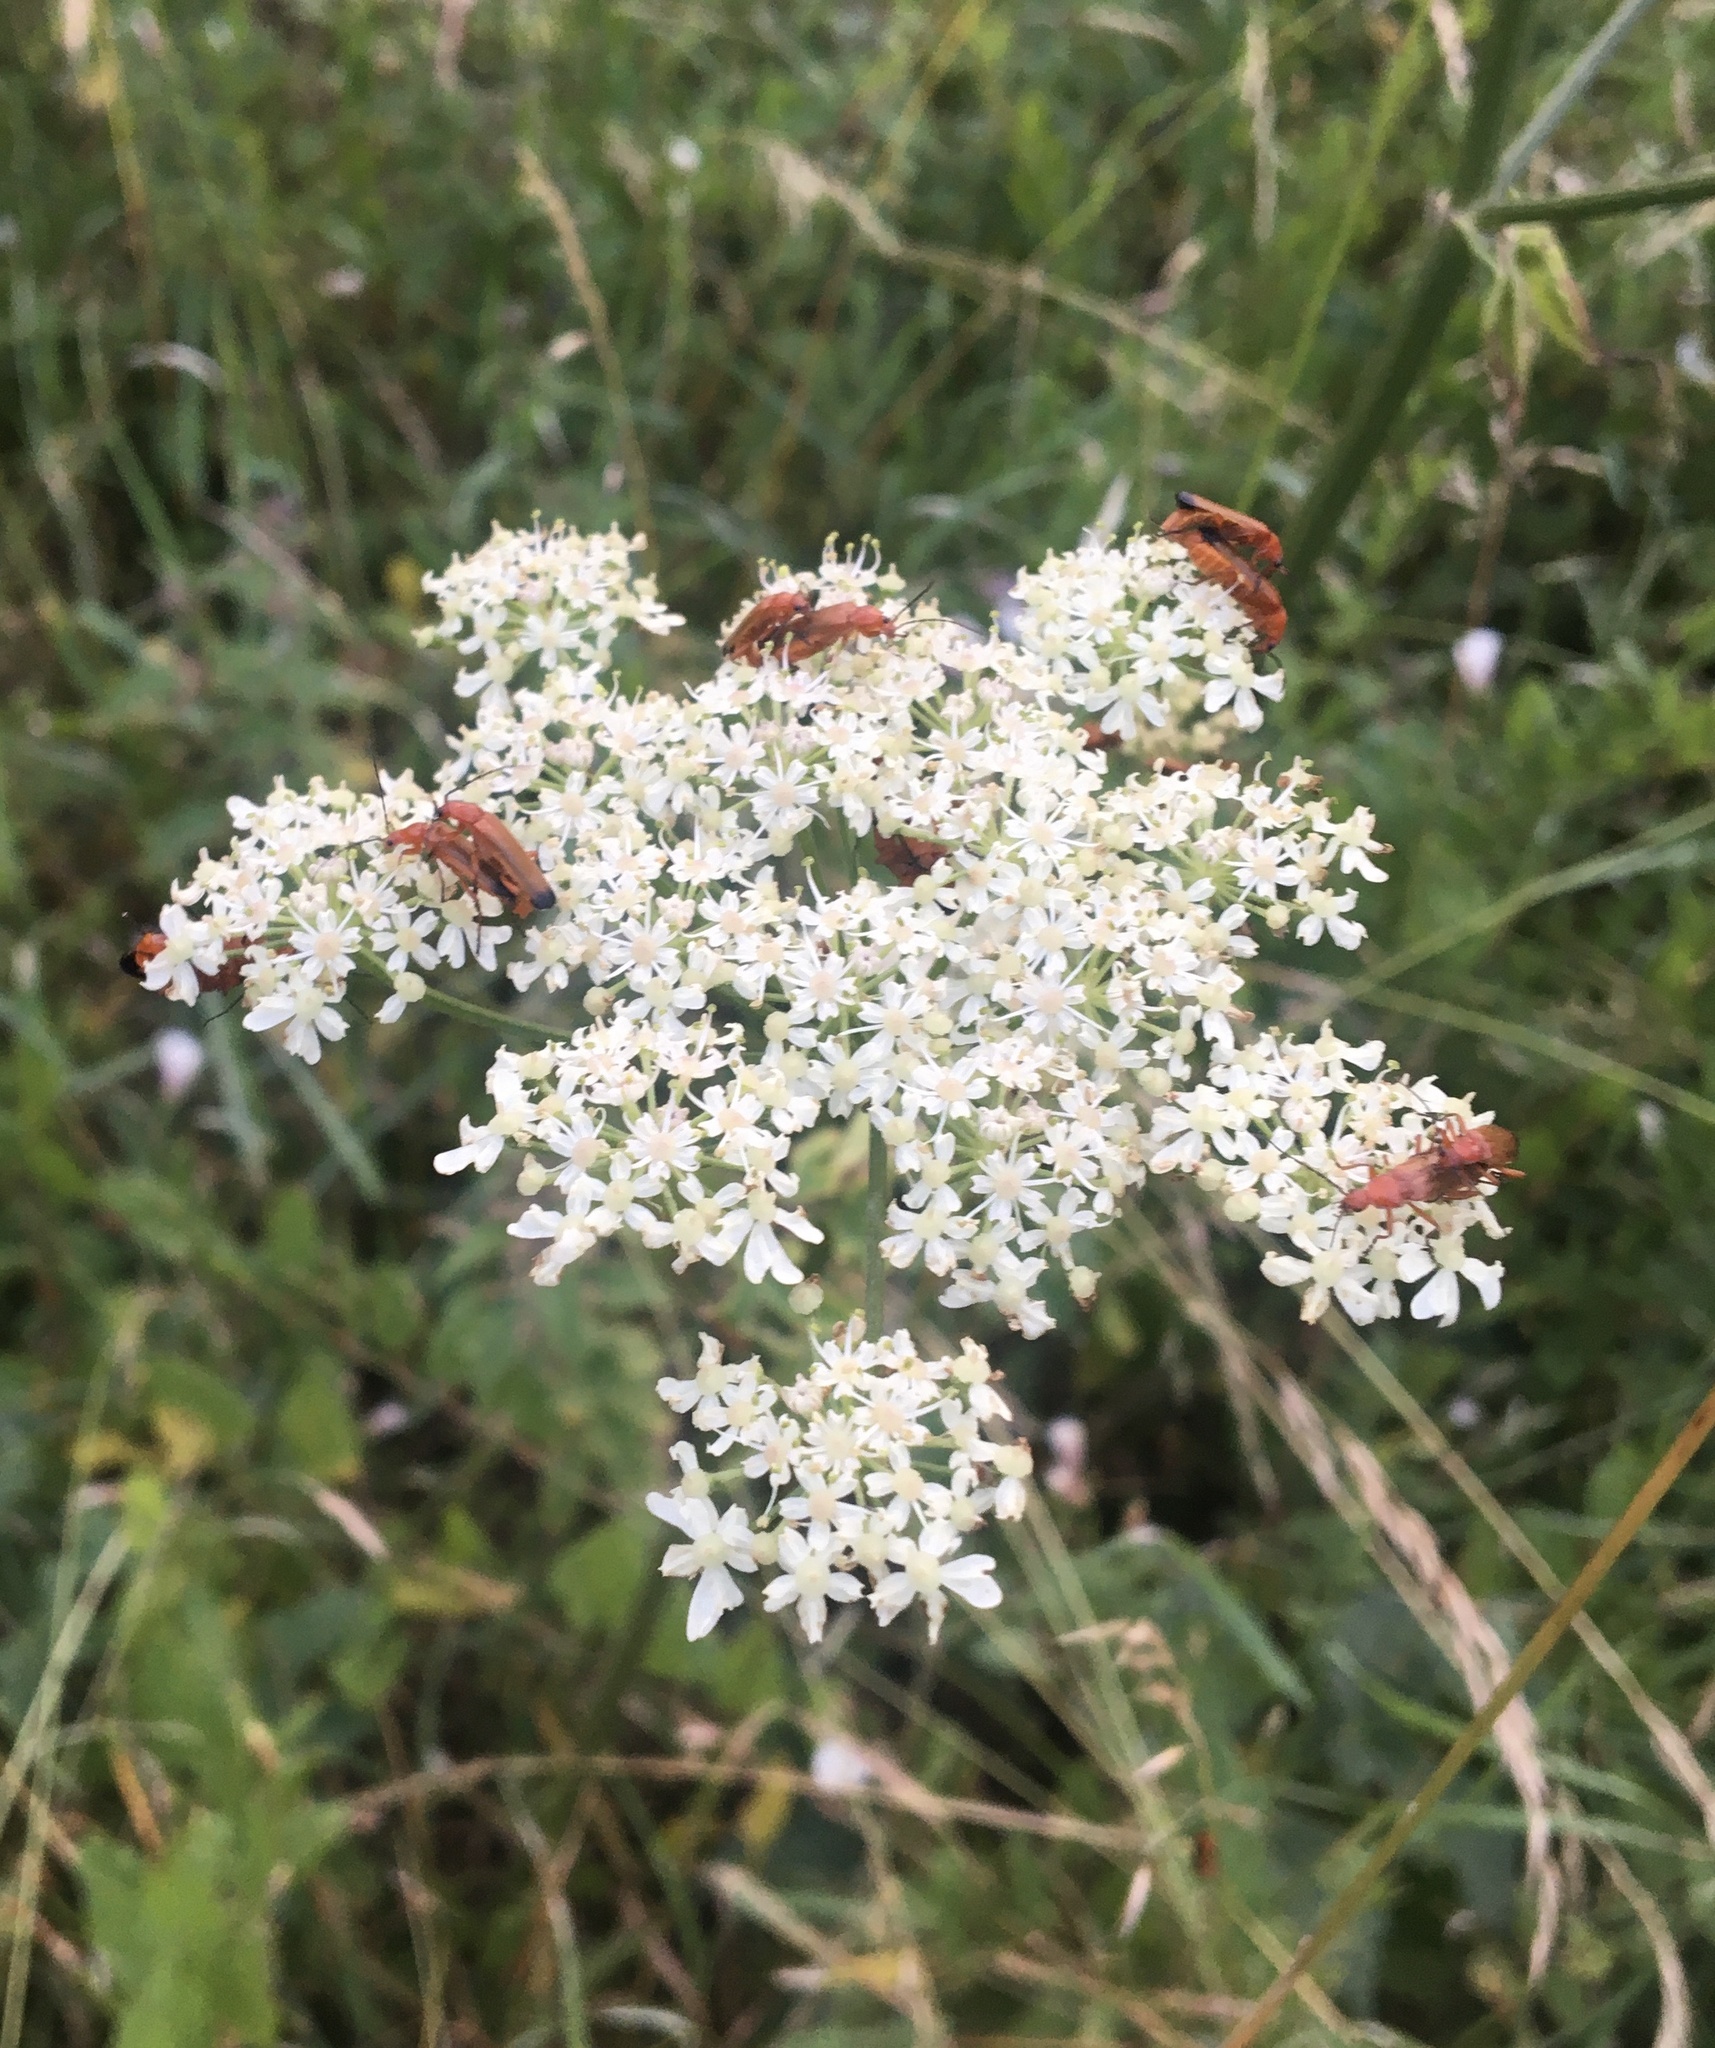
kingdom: Animalia
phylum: Arthropoda
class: Insecta
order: Coleoptera
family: Cantharidae
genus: Rhagonycha
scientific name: Rhagonycha fulva
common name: Common red soldier beetle
